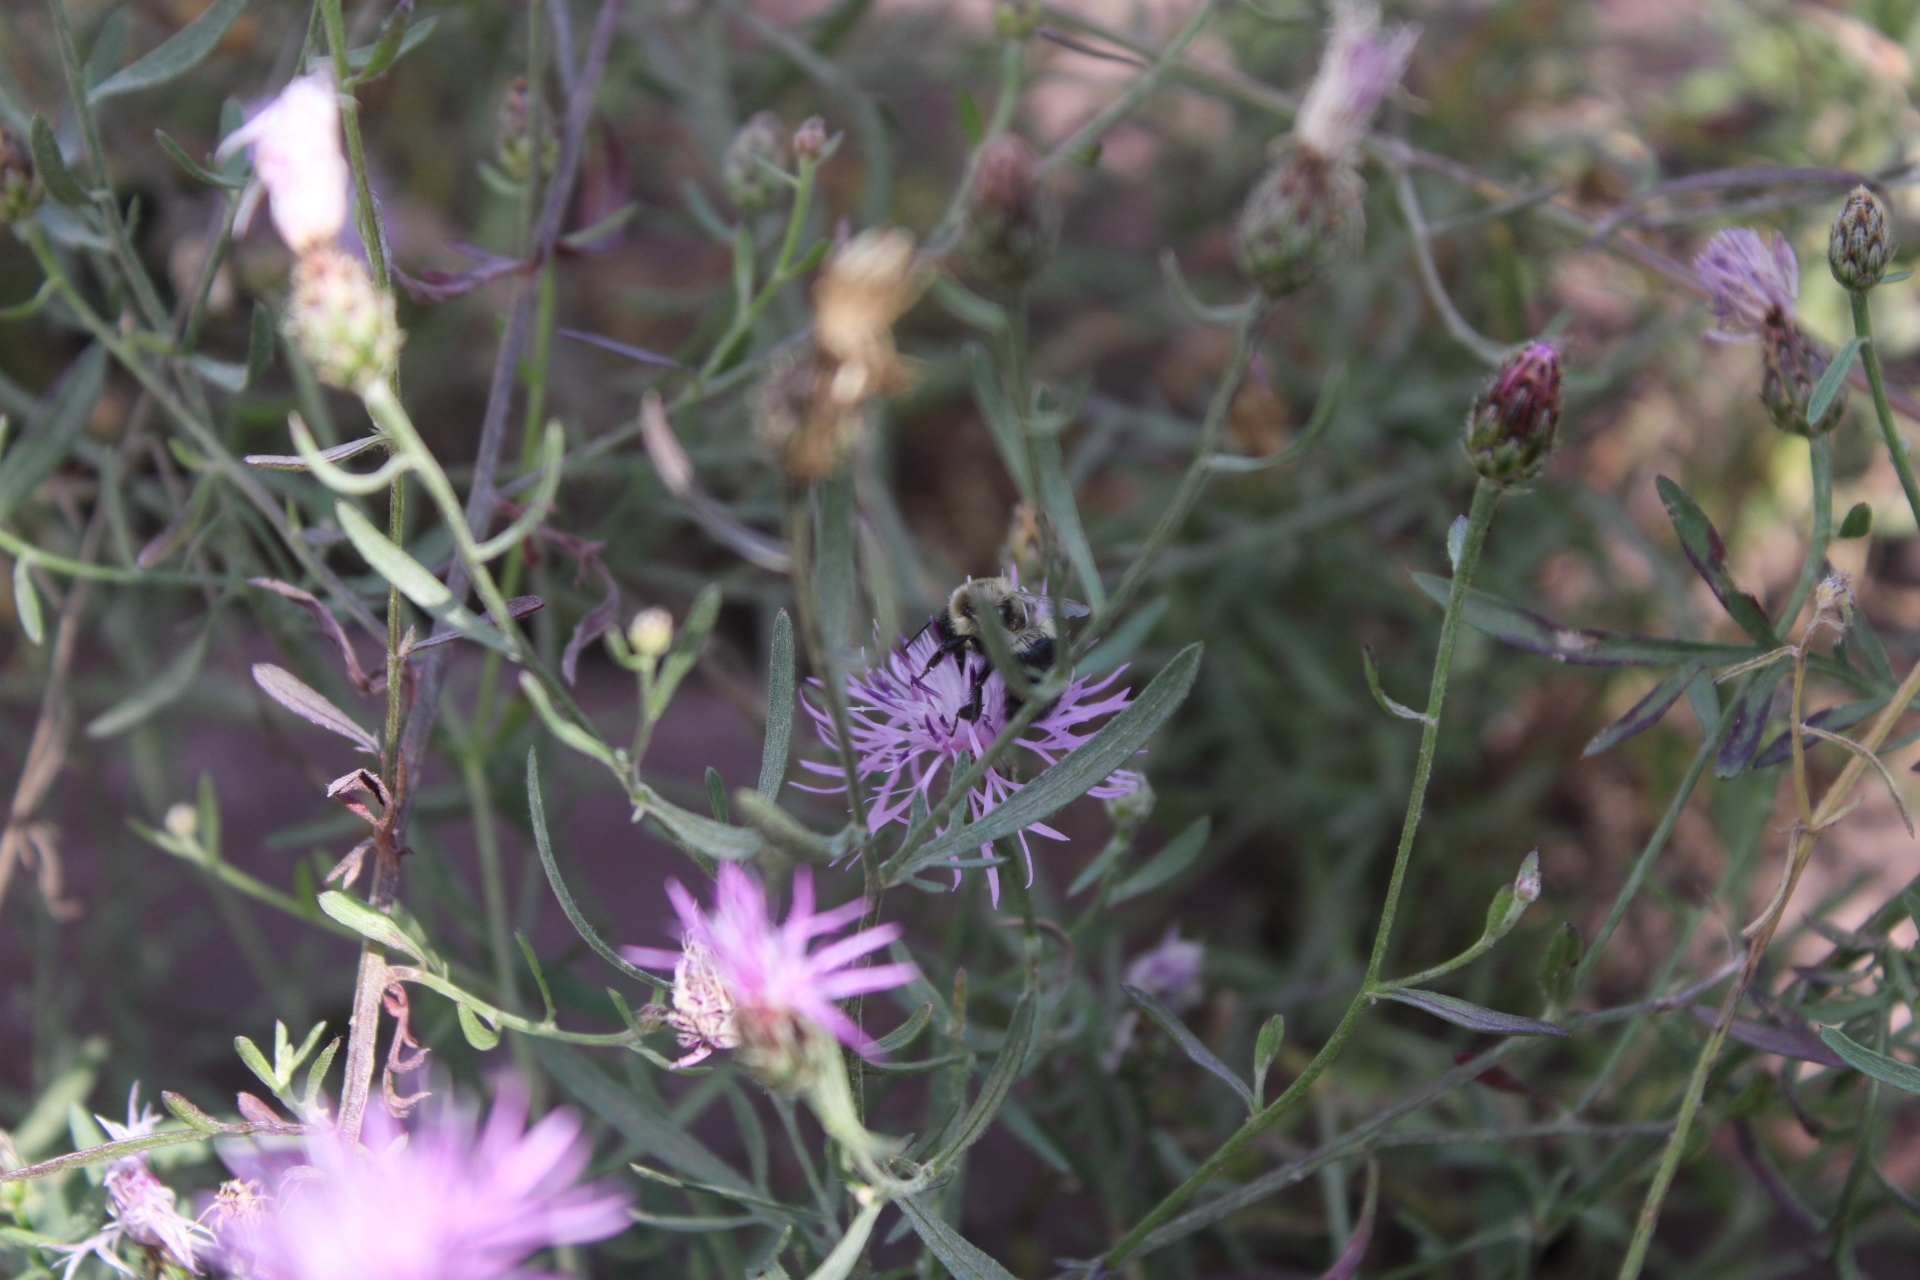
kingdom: Animalia
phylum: Arthropoda
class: Insecta
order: Hymenoptera
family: Apidae
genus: Bombus
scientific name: Bombus impatiens
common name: Common eastern bumble bee
